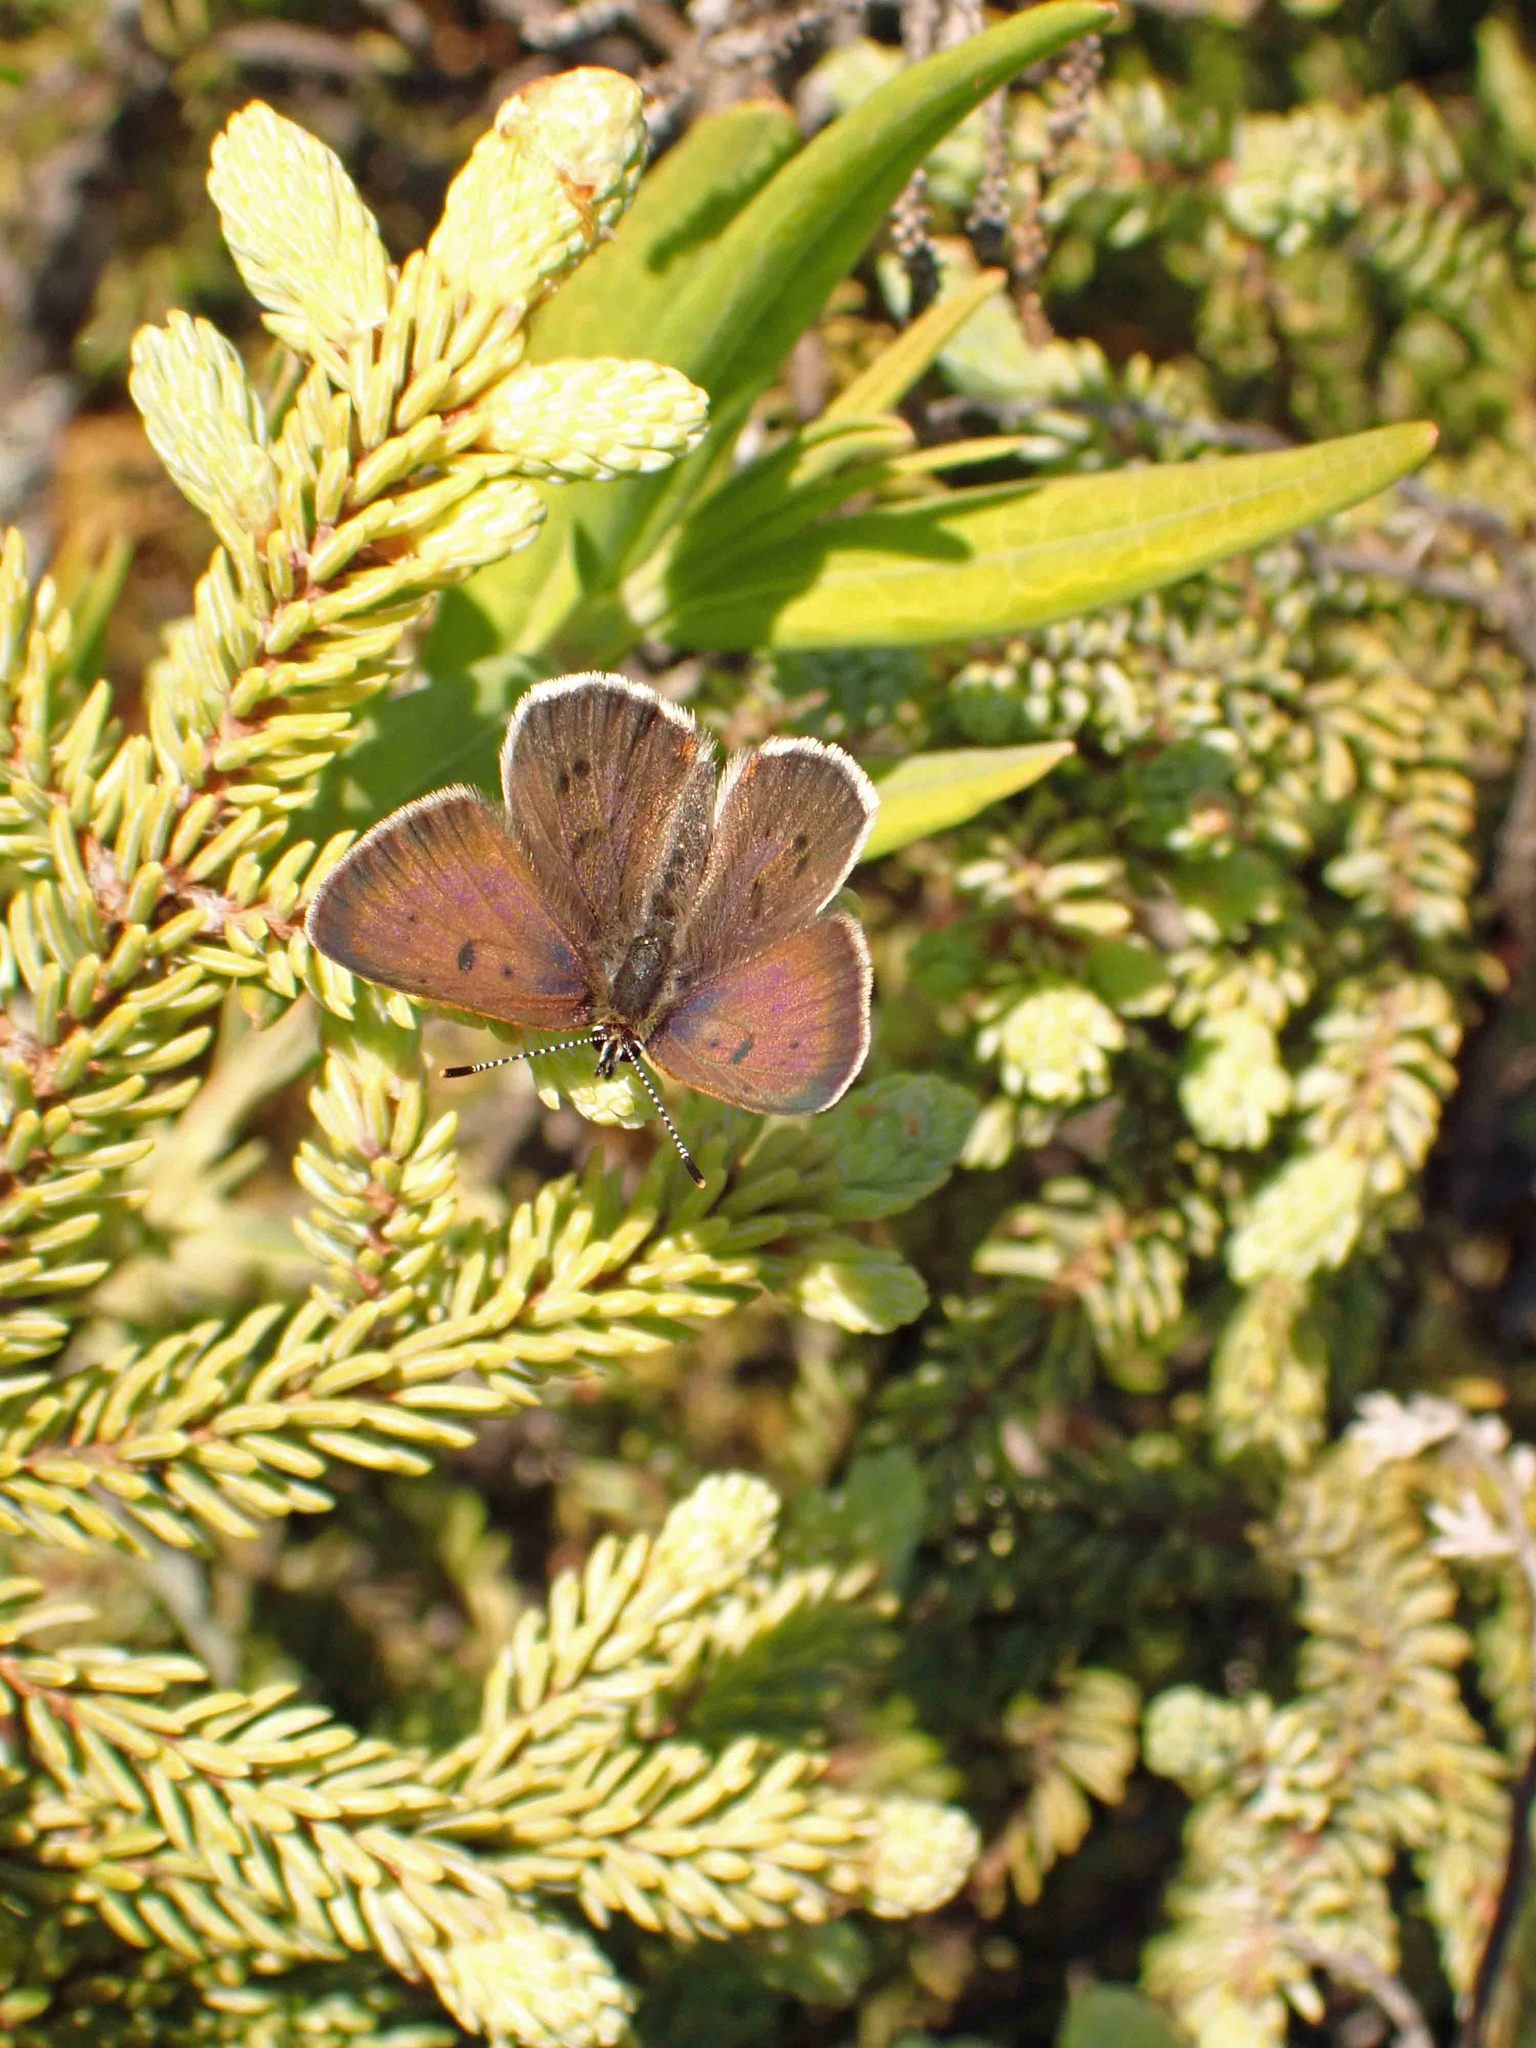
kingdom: Animalia
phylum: Arthropoda
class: Insecta
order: Lepidoptera
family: Lycaenidae
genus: Tharsalea
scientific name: Tharsalea epixanthe
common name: Bog copper
